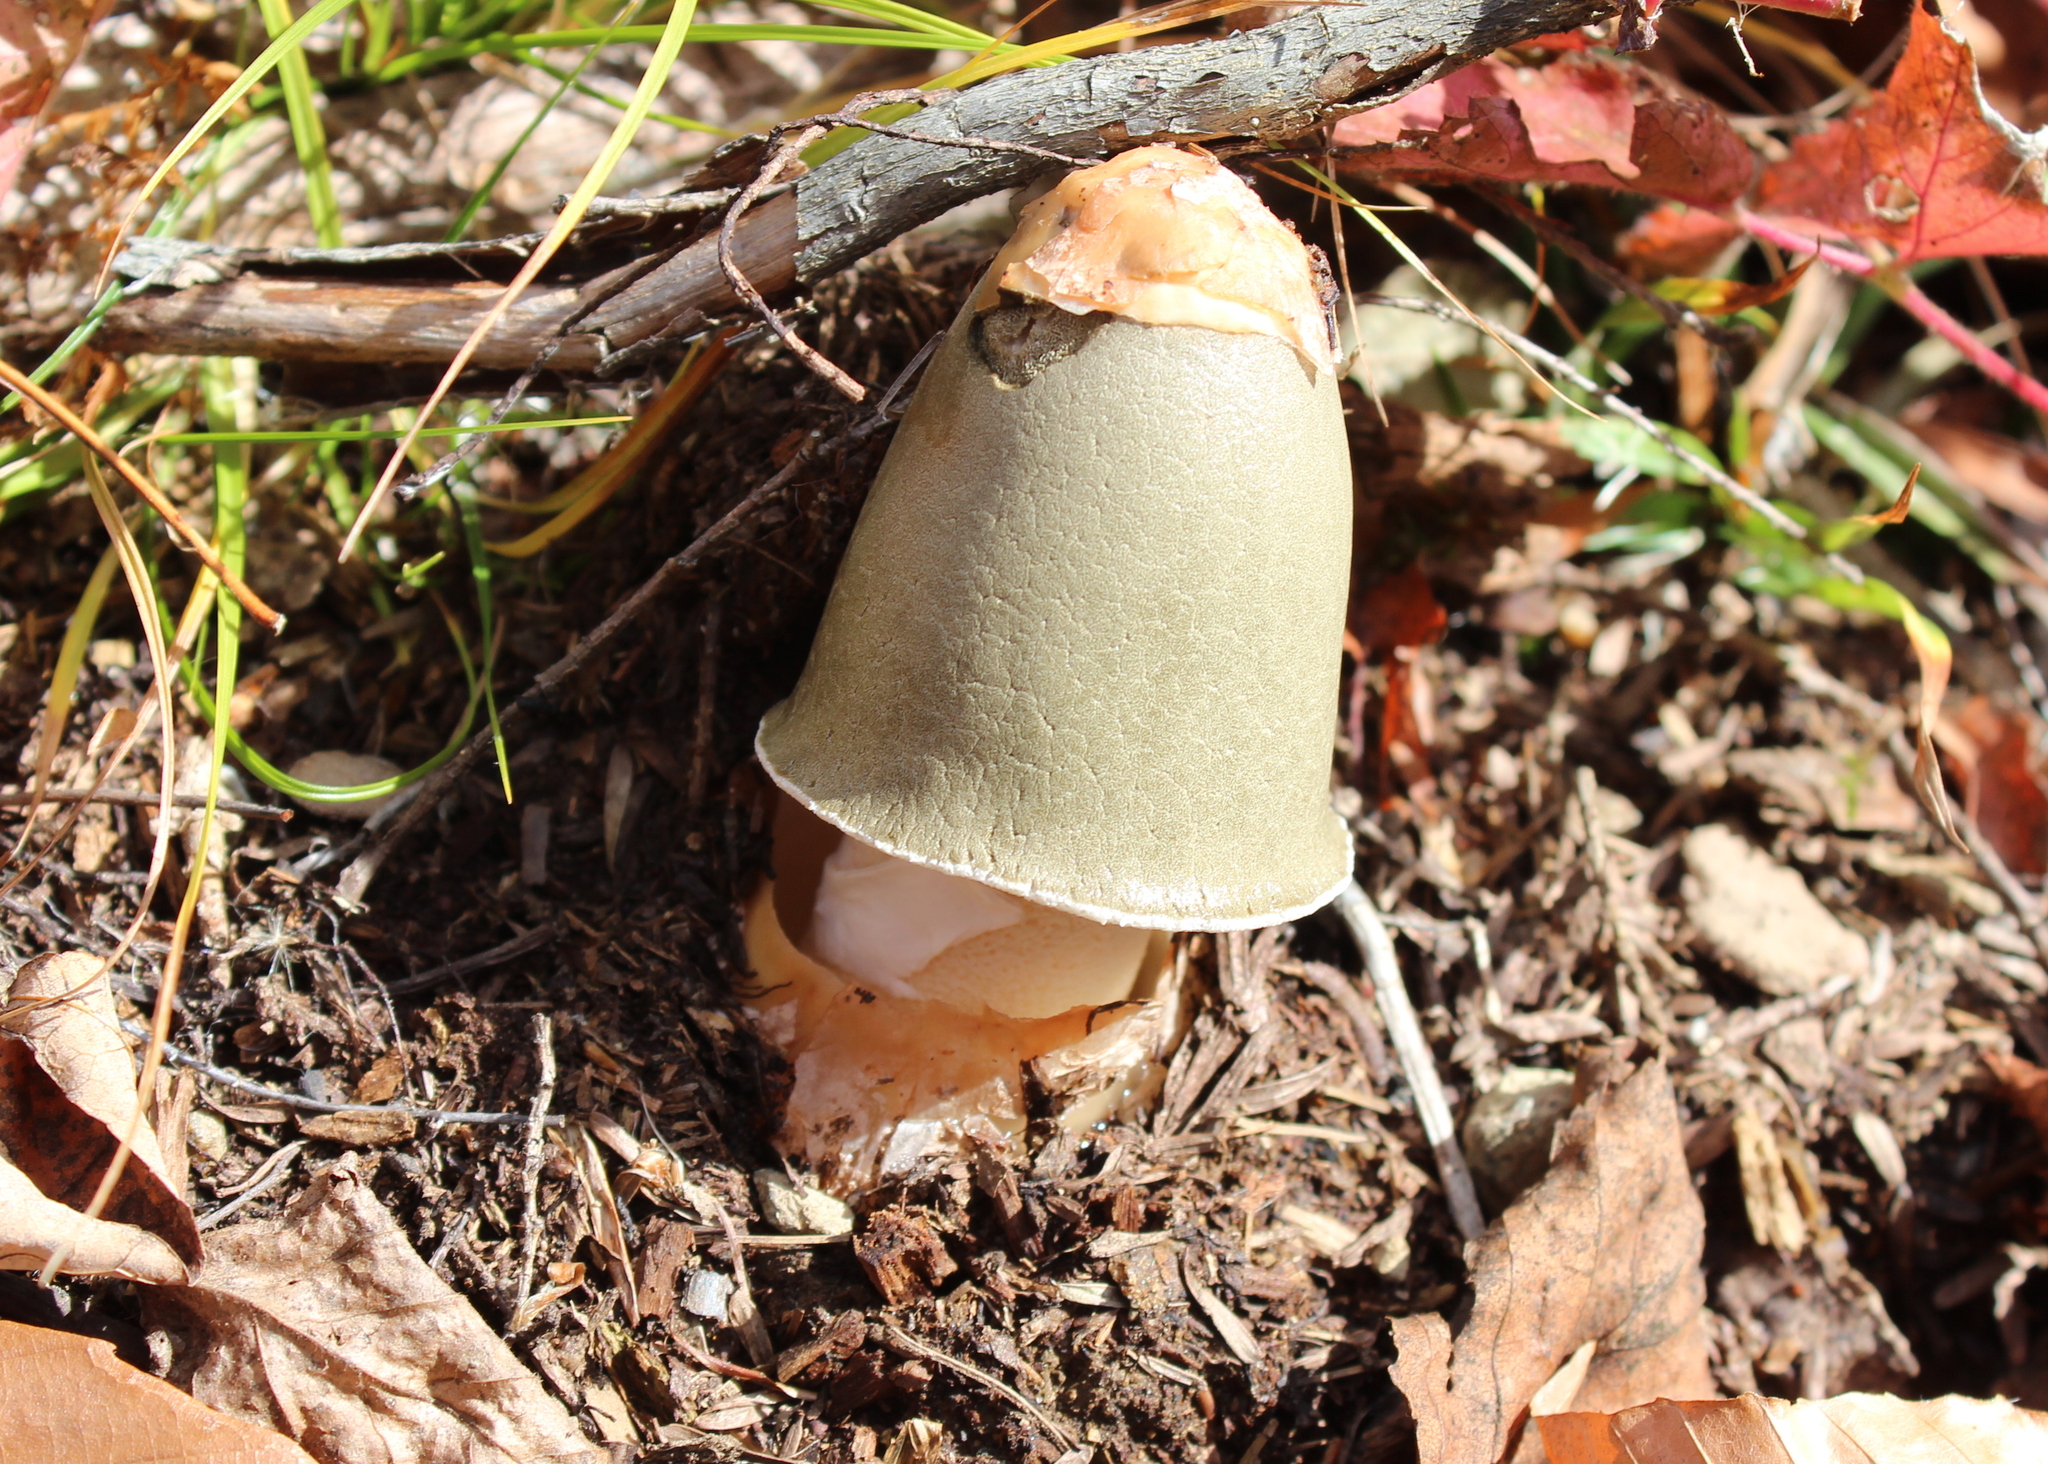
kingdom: Fungi
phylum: Basidiomycota
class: Agaricomycetes
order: Phallales
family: Phallaceae
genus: Phallus
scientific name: Phallus ravenelii
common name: Ravenel's stinkhorn
